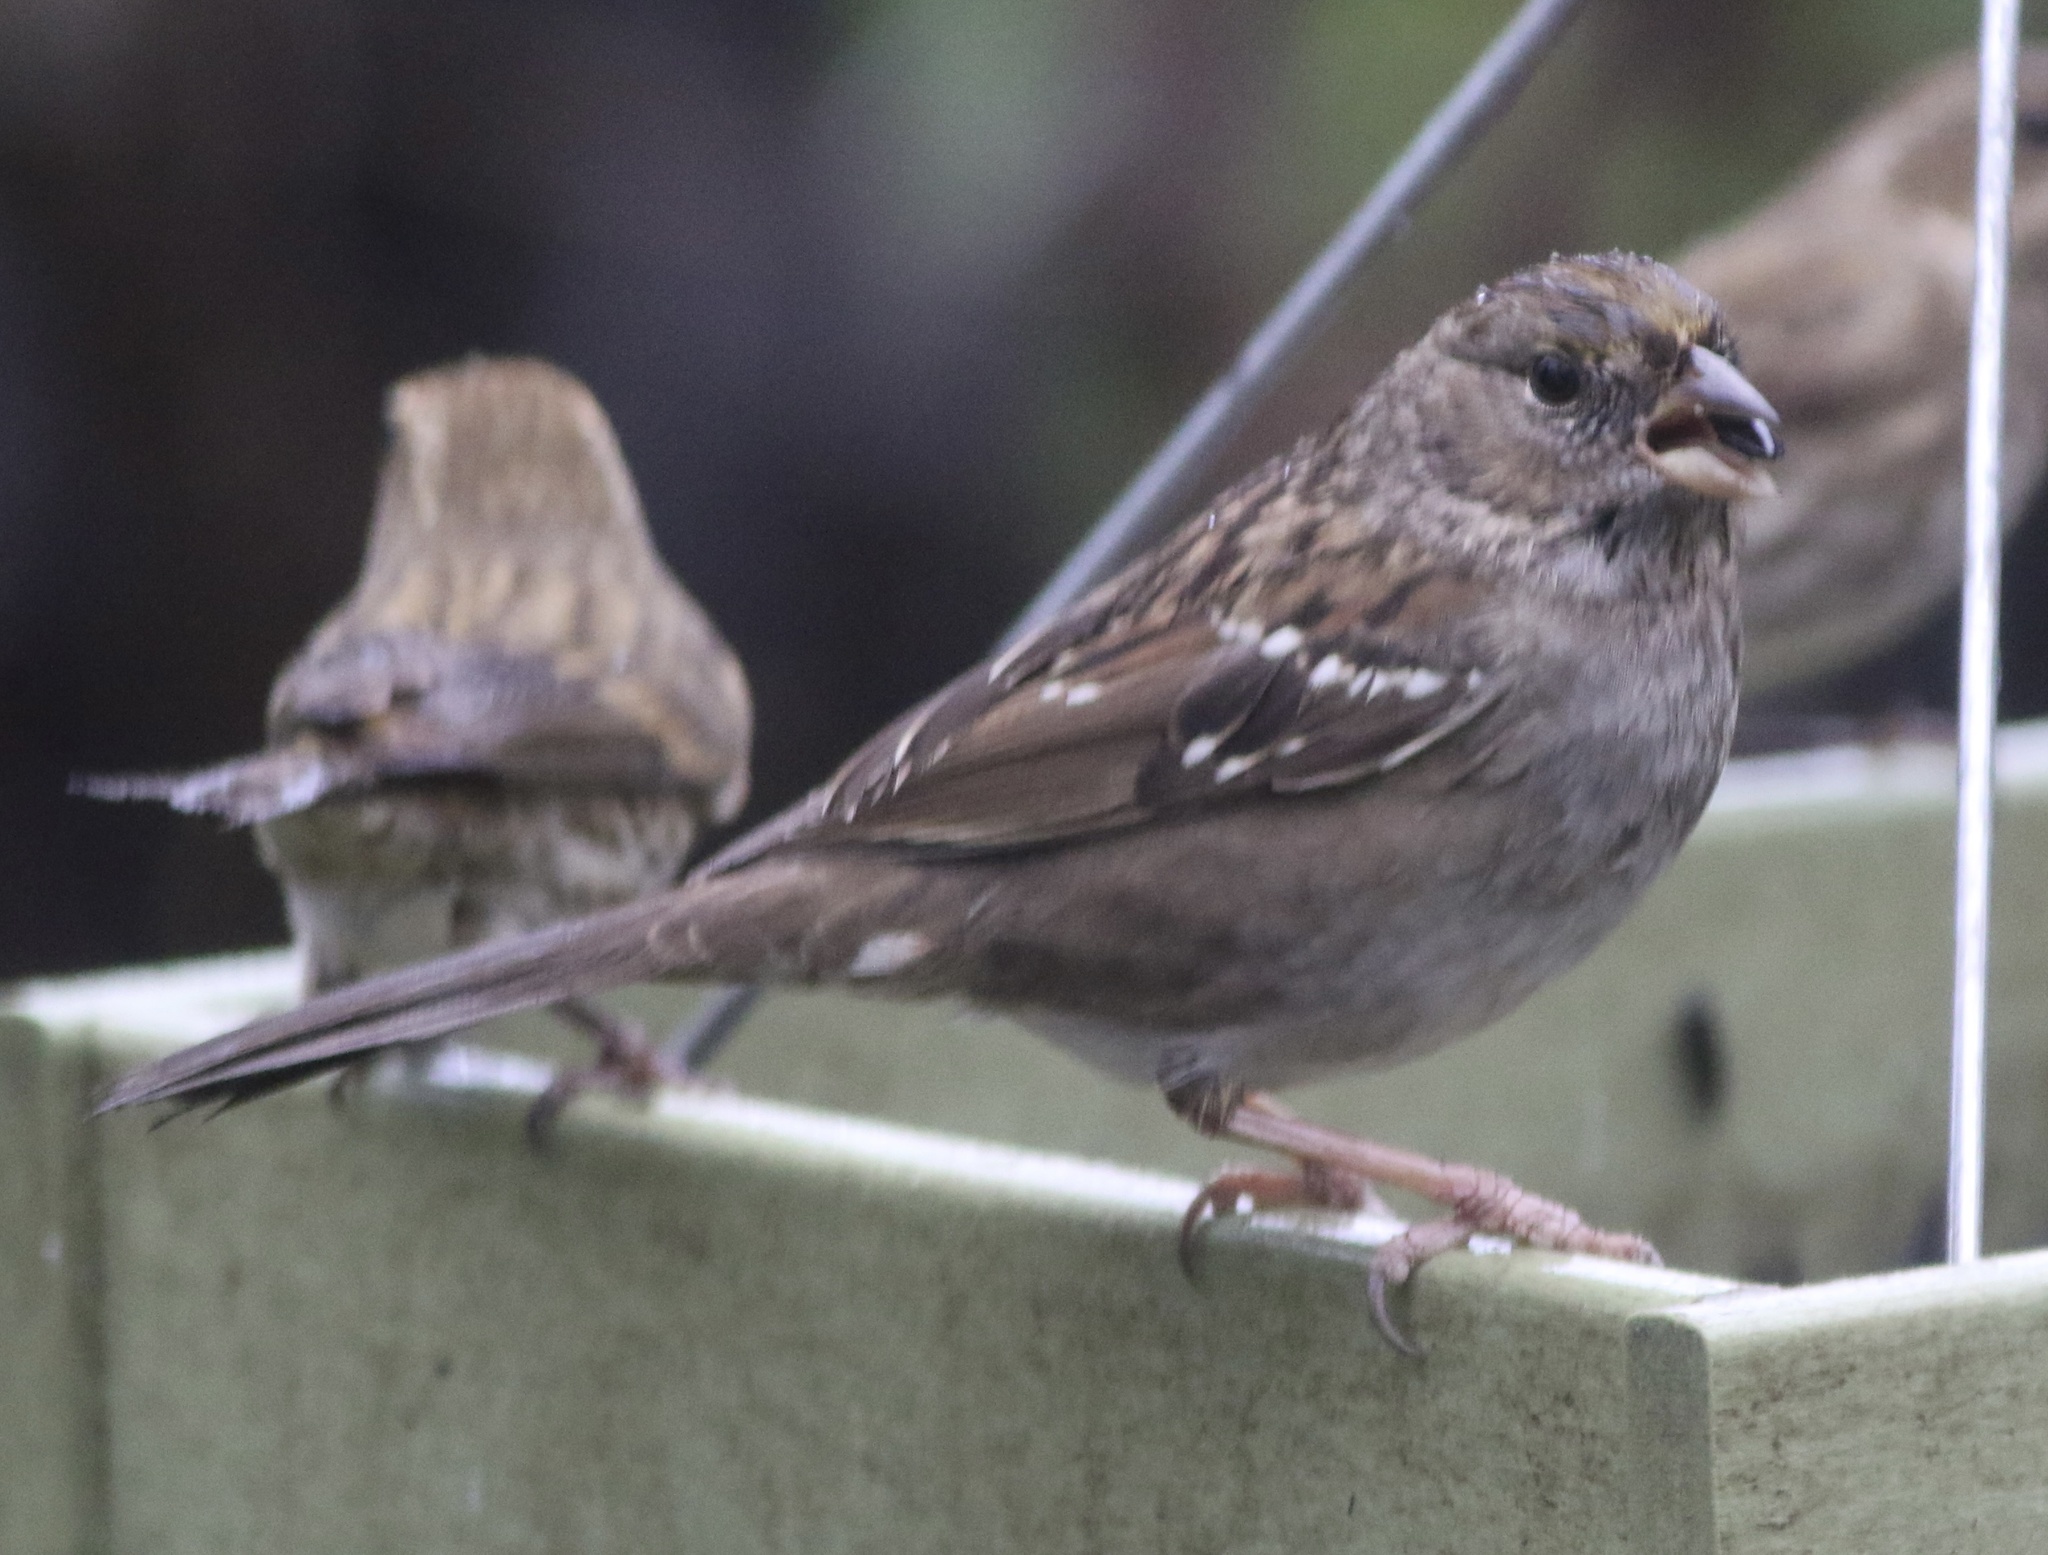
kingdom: Animalia
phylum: Chordata
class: Aves
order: Passeriformes
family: Passerellidae
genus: Zonotrichia
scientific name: Zonotrichia atricapilla
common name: Golden-crowned sparrow
